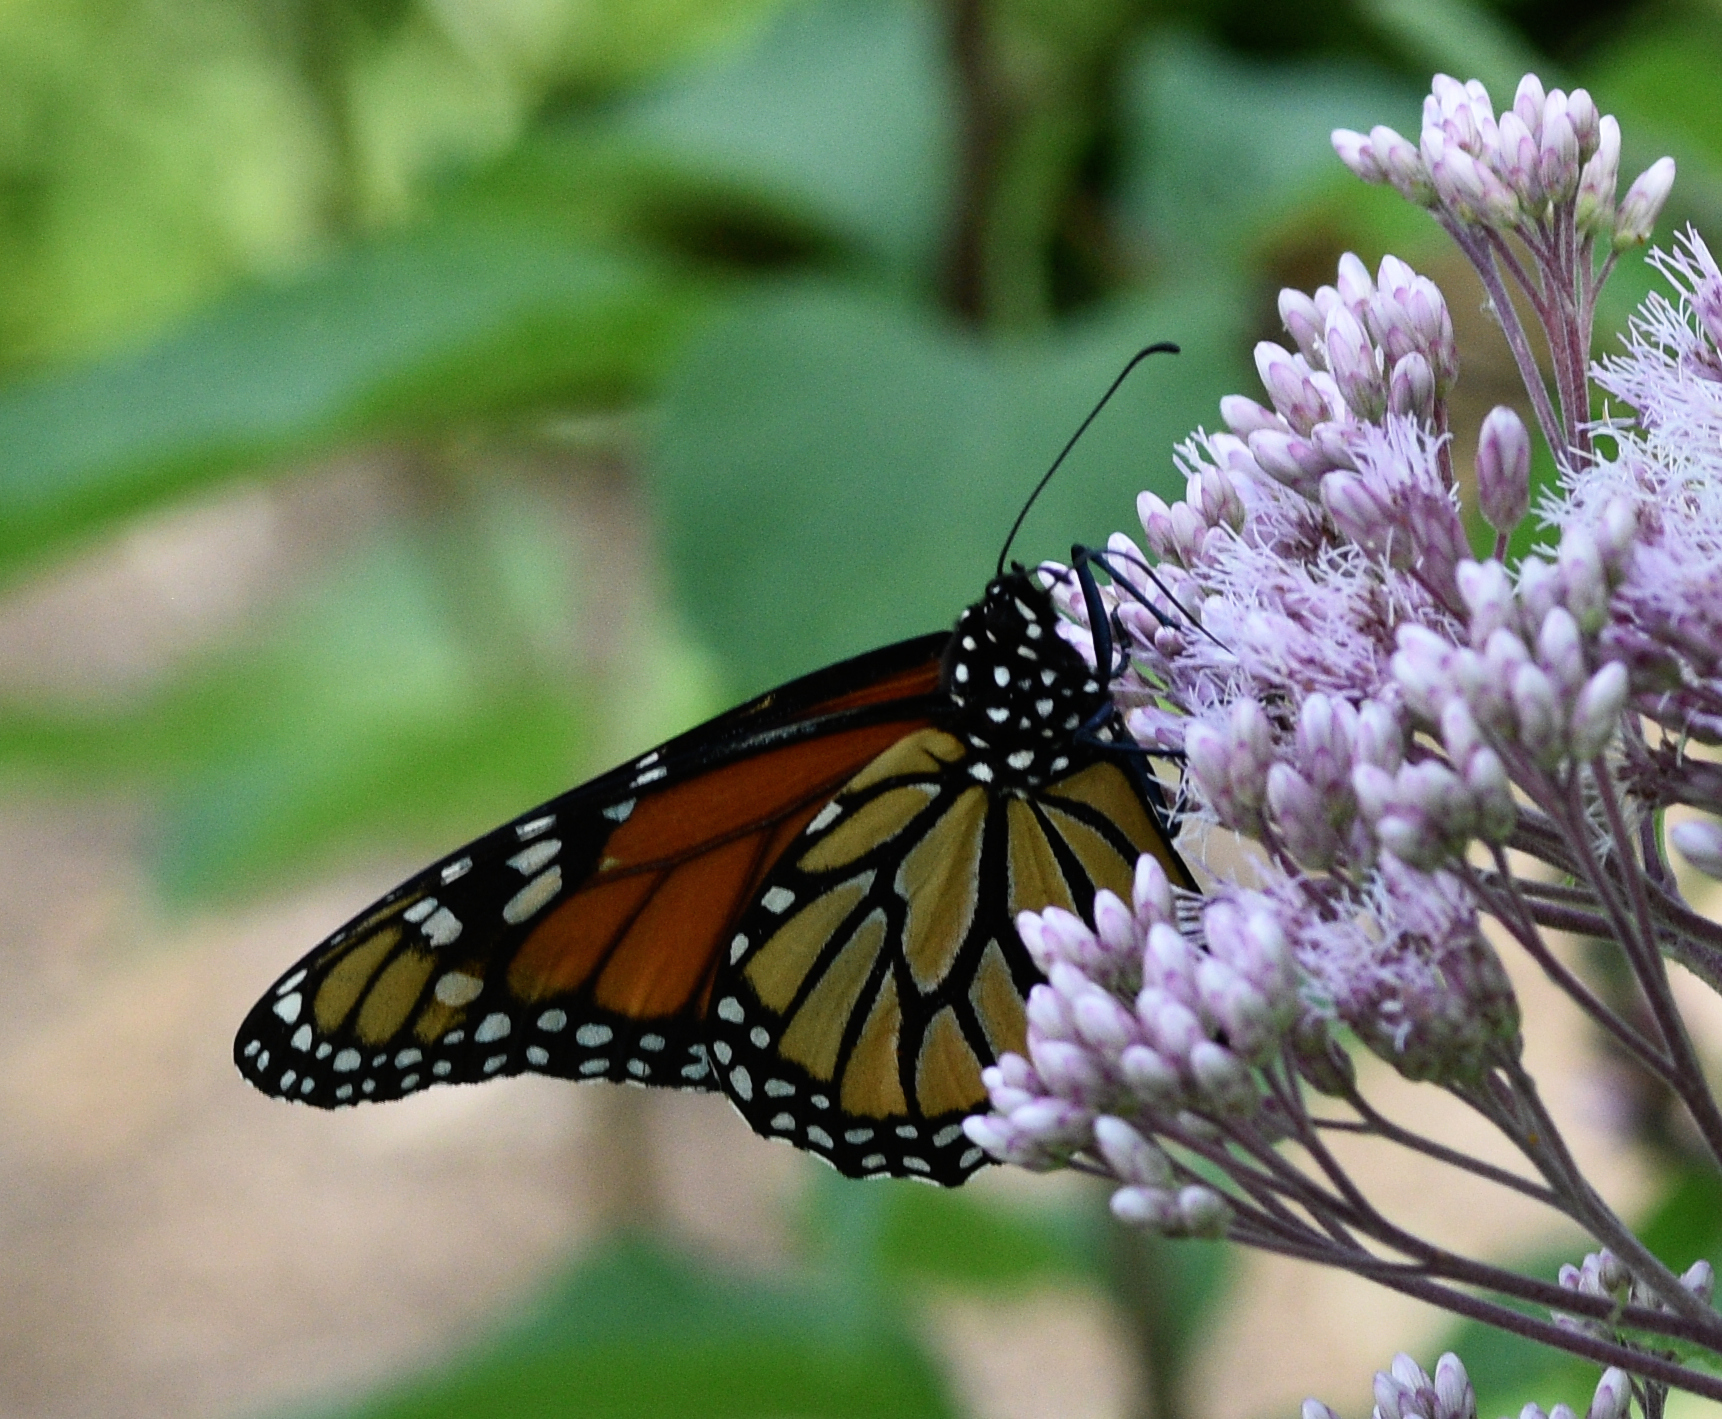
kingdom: Animalia
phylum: Arthropoda
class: Insecta
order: Lepidoptera
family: Nymphalidae
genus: Danaus
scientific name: Danaus plexippus
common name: Monarch
